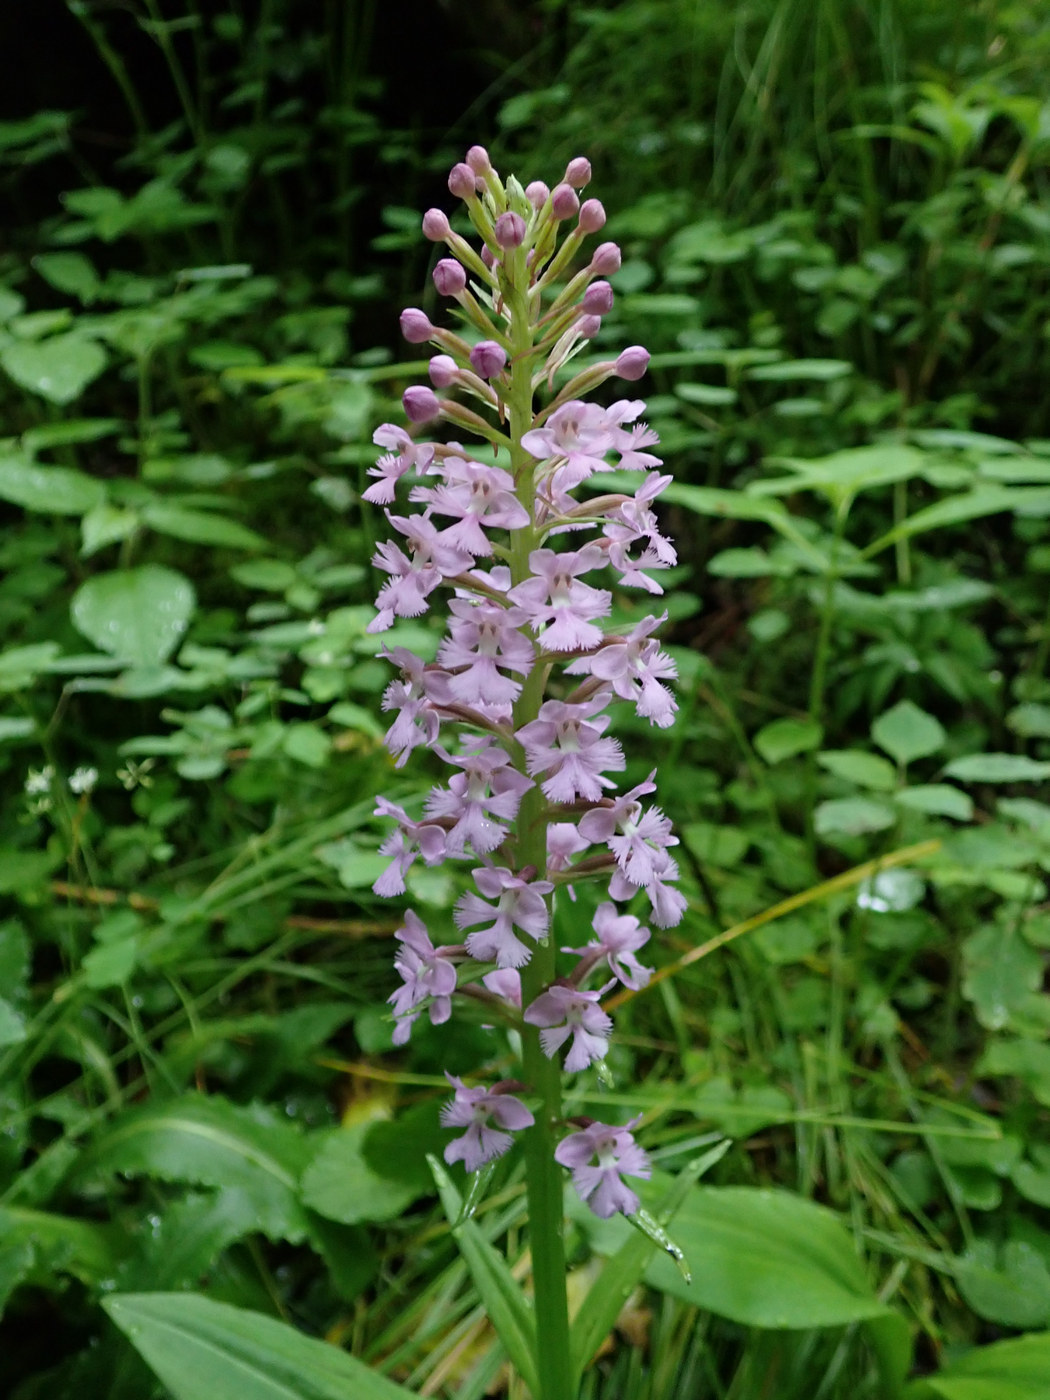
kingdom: Plantae
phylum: Tracheophyta
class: Liliopsida
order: Asparagales
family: Orchidaceae
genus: Platanthera
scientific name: Platanthera psycodes
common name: Lesser purple fringed orchid
